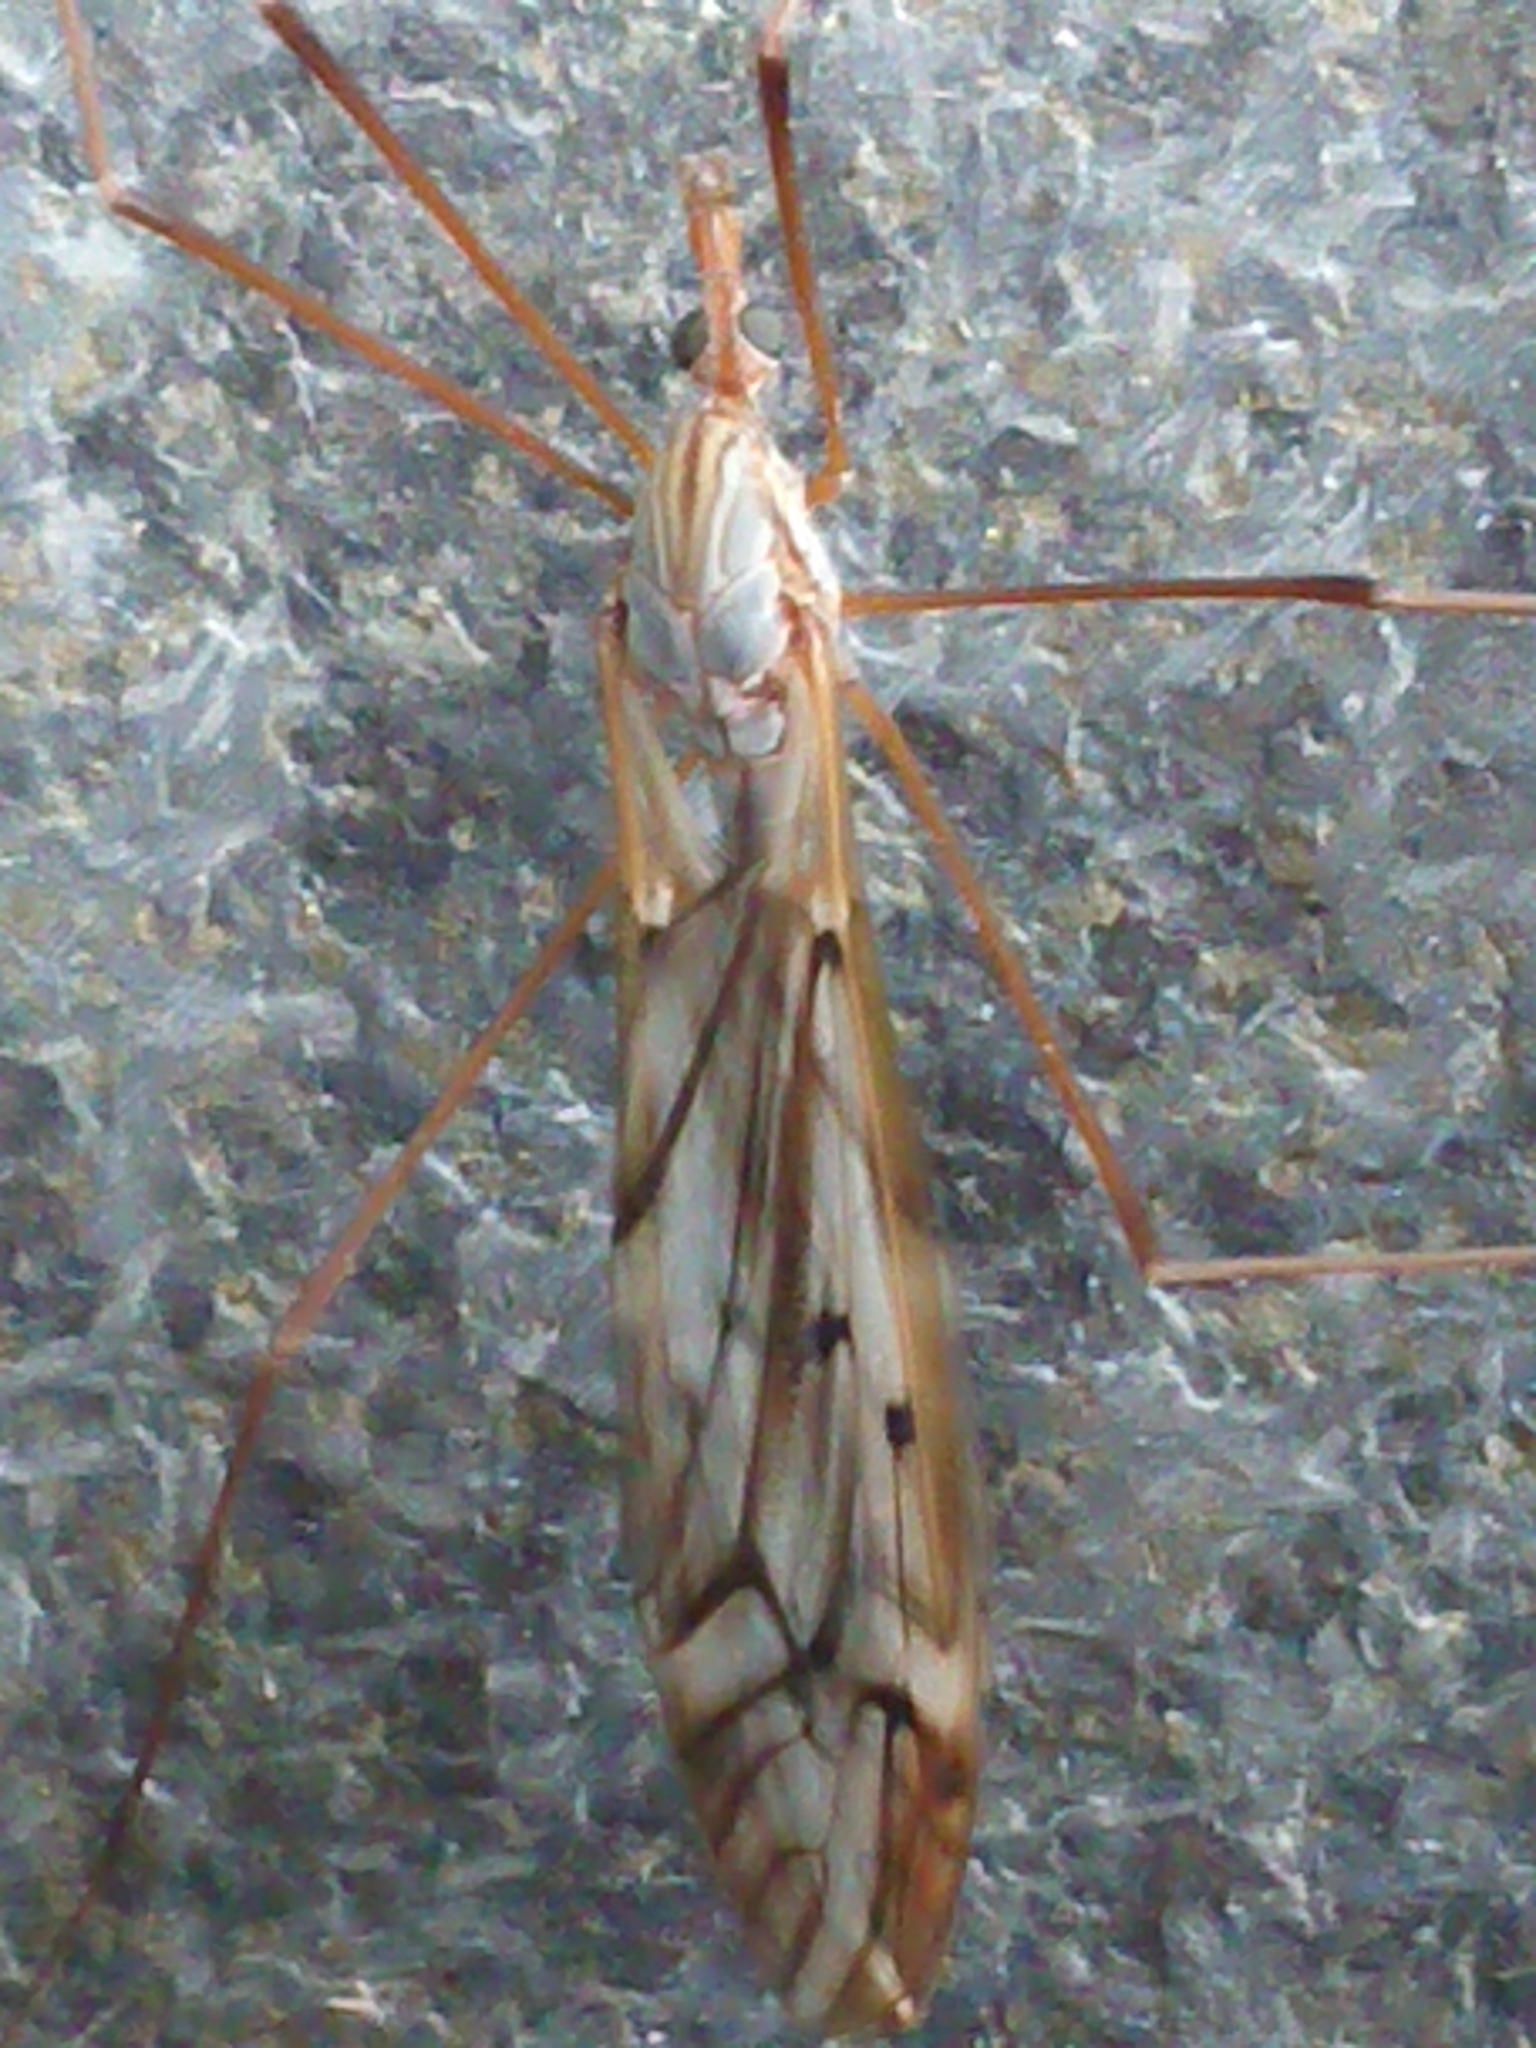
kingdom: Animalia
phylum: Arthropoda
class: Insecta
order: Diptera
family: Tipulidae
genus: Zelandotipula
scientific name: Zelandotipula novarae
